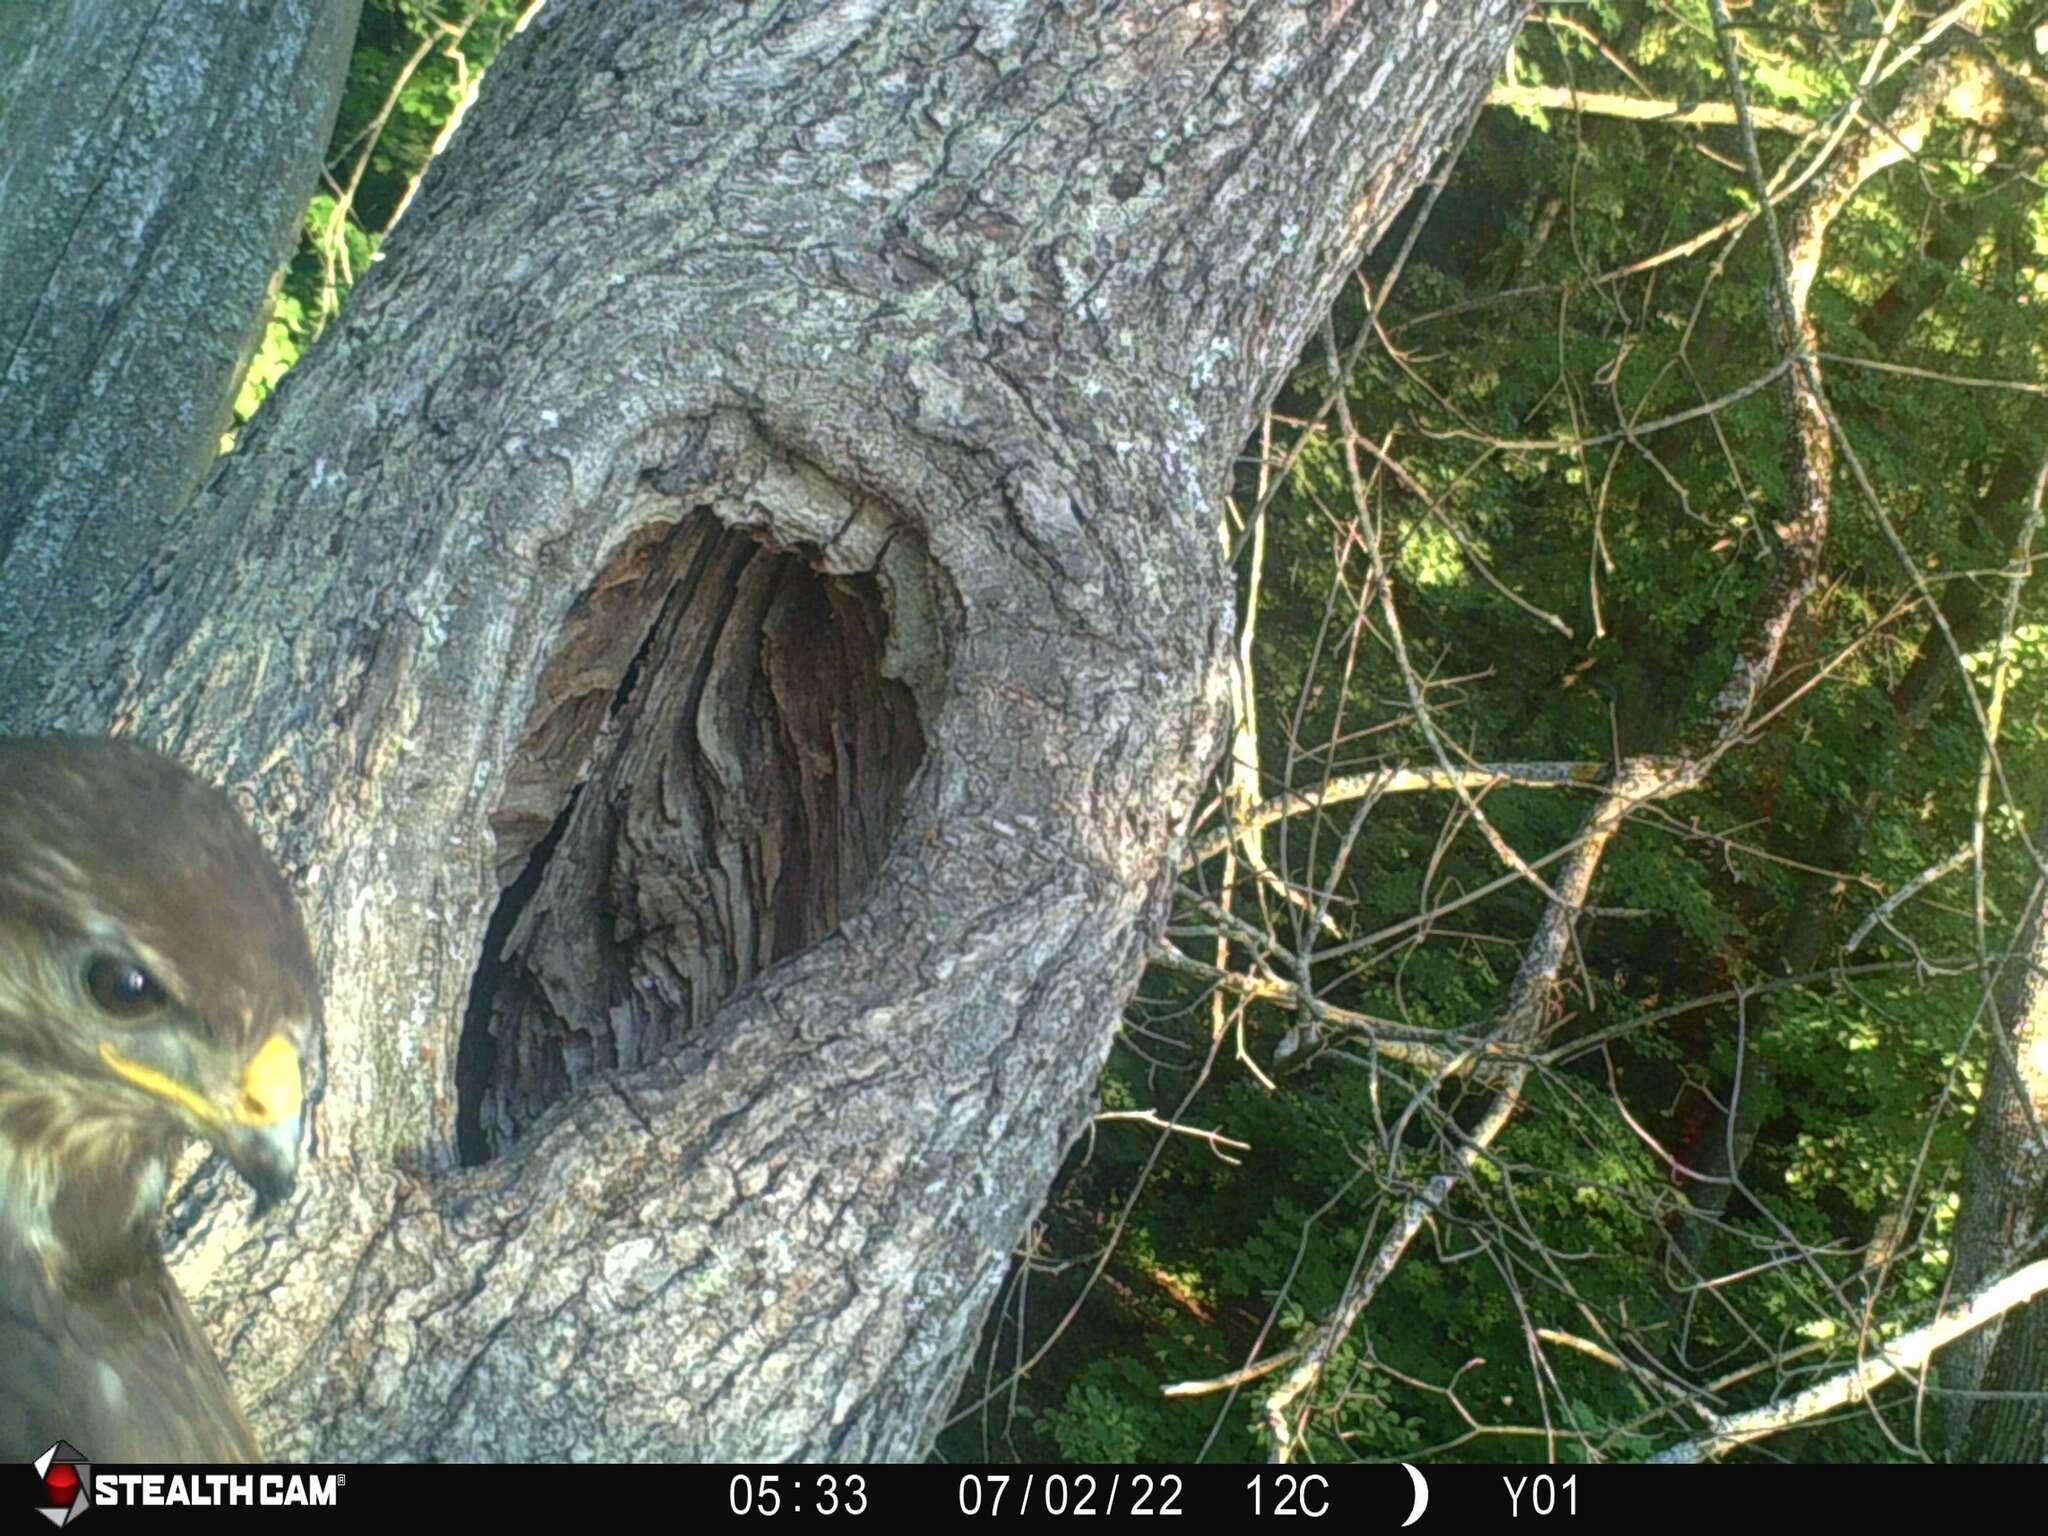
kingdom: Animalia
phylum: Chordata
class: Aves
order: Accipitriformes
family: Accipitridae
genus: Buteo
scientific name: Buteo buteo
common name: Common buzzard
